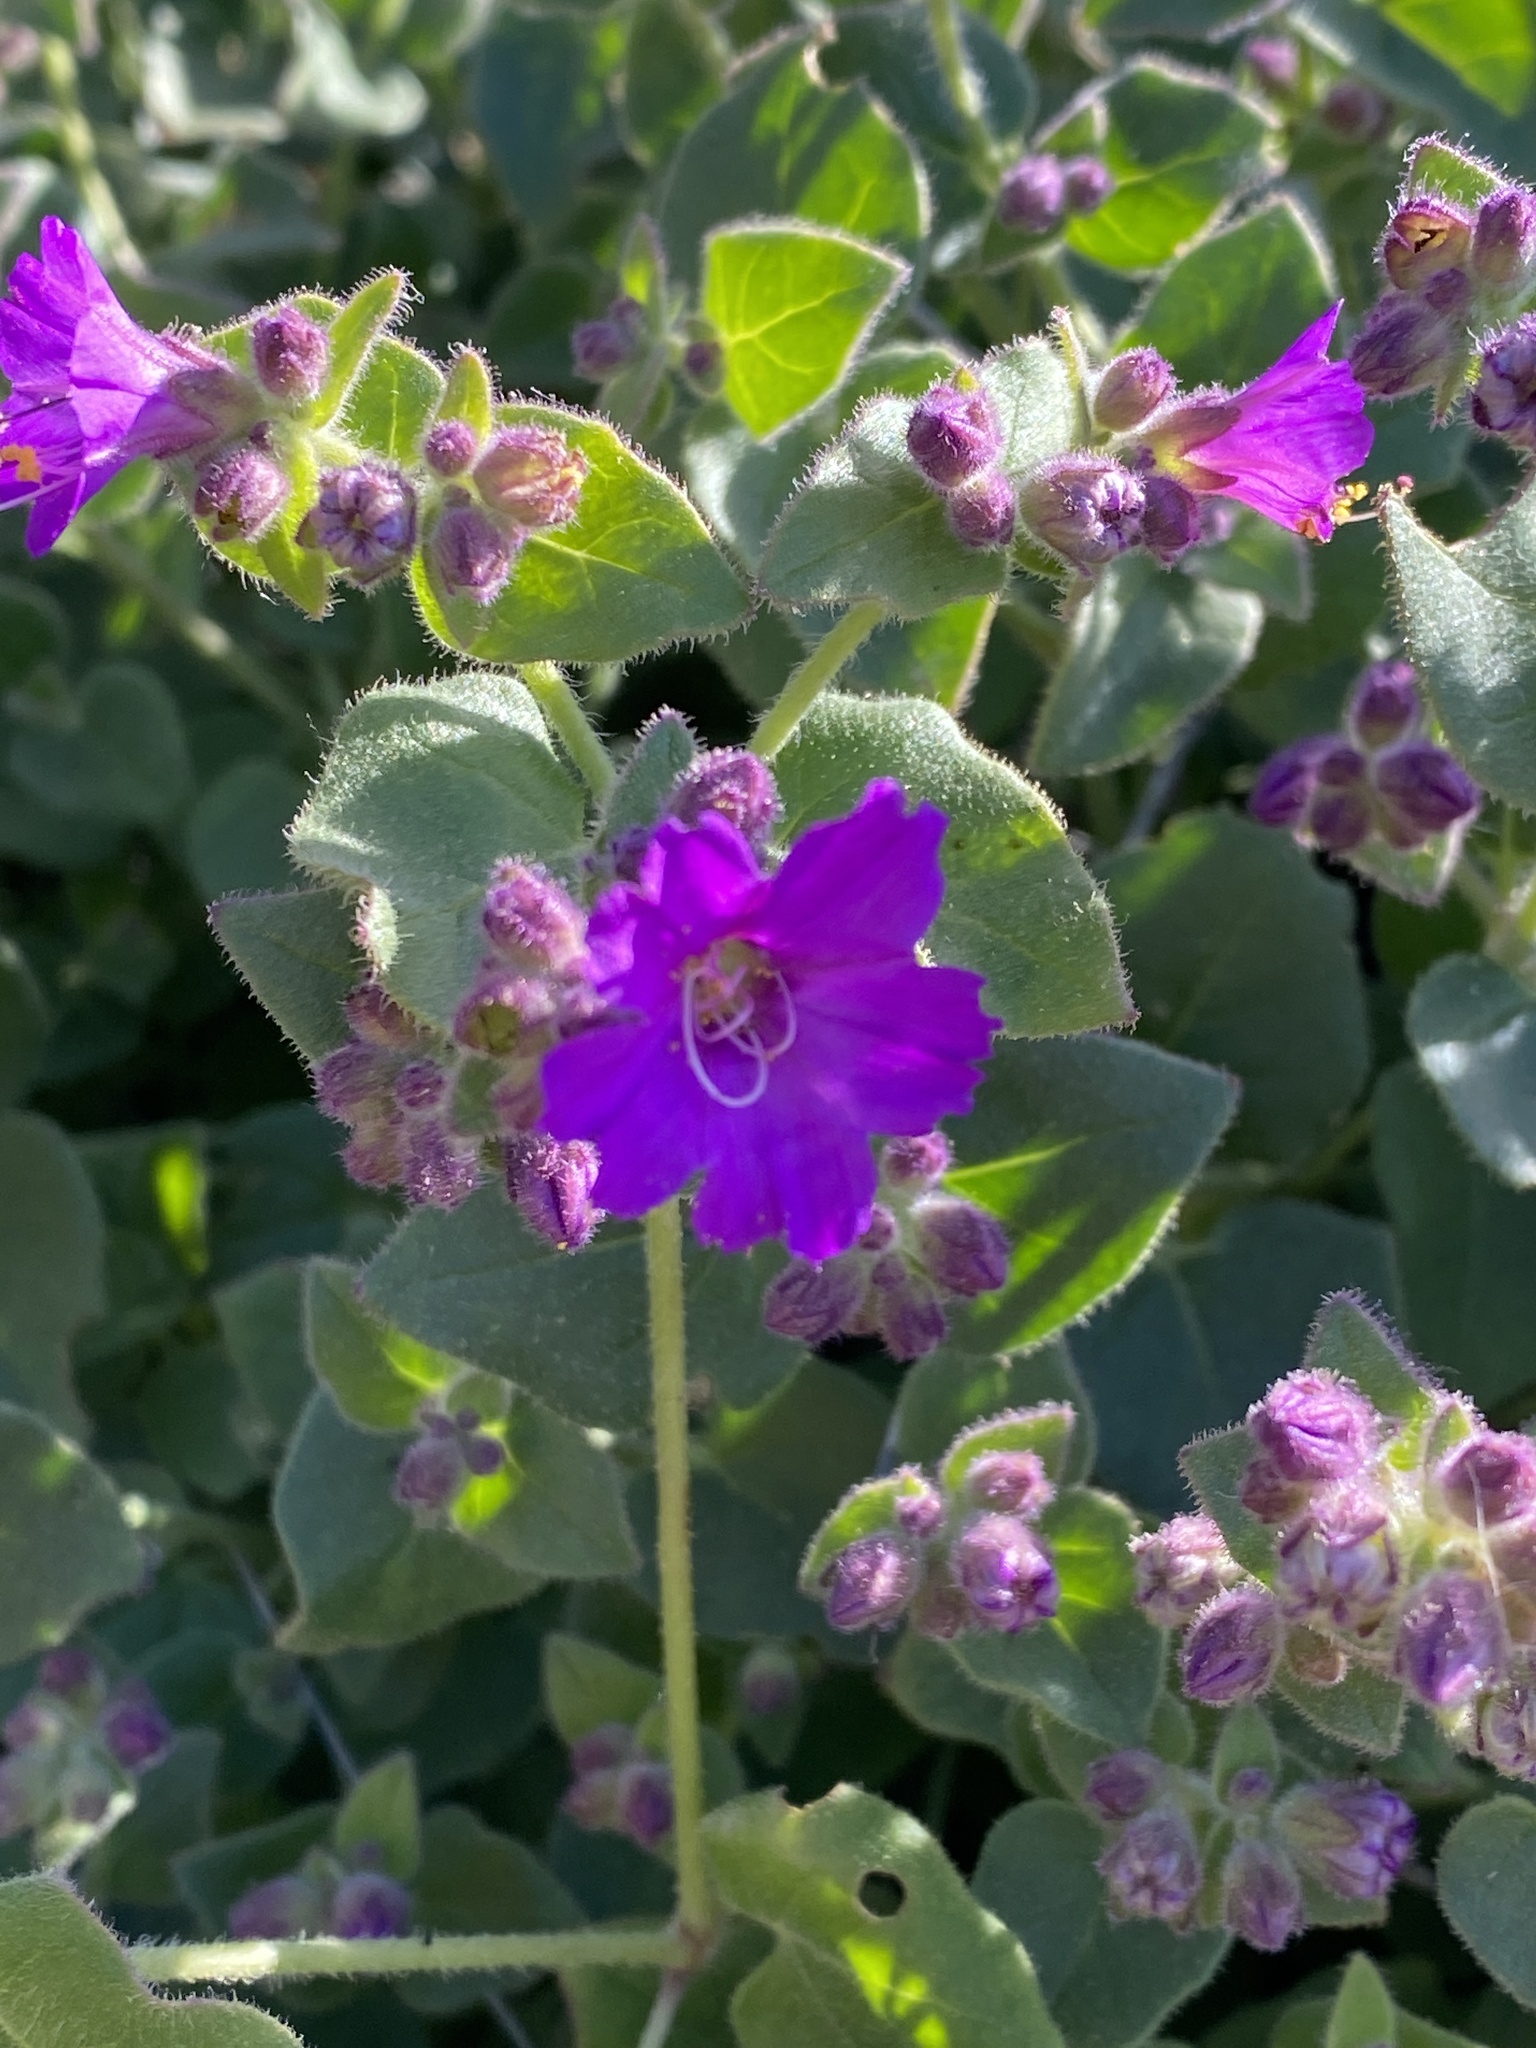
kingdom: Plantae
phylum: Tracheophyta
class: Magnoliopsida
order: Caryophyllales
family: Nyctaginaceae
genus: Mirabilis
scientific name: Mirabilis laevis
